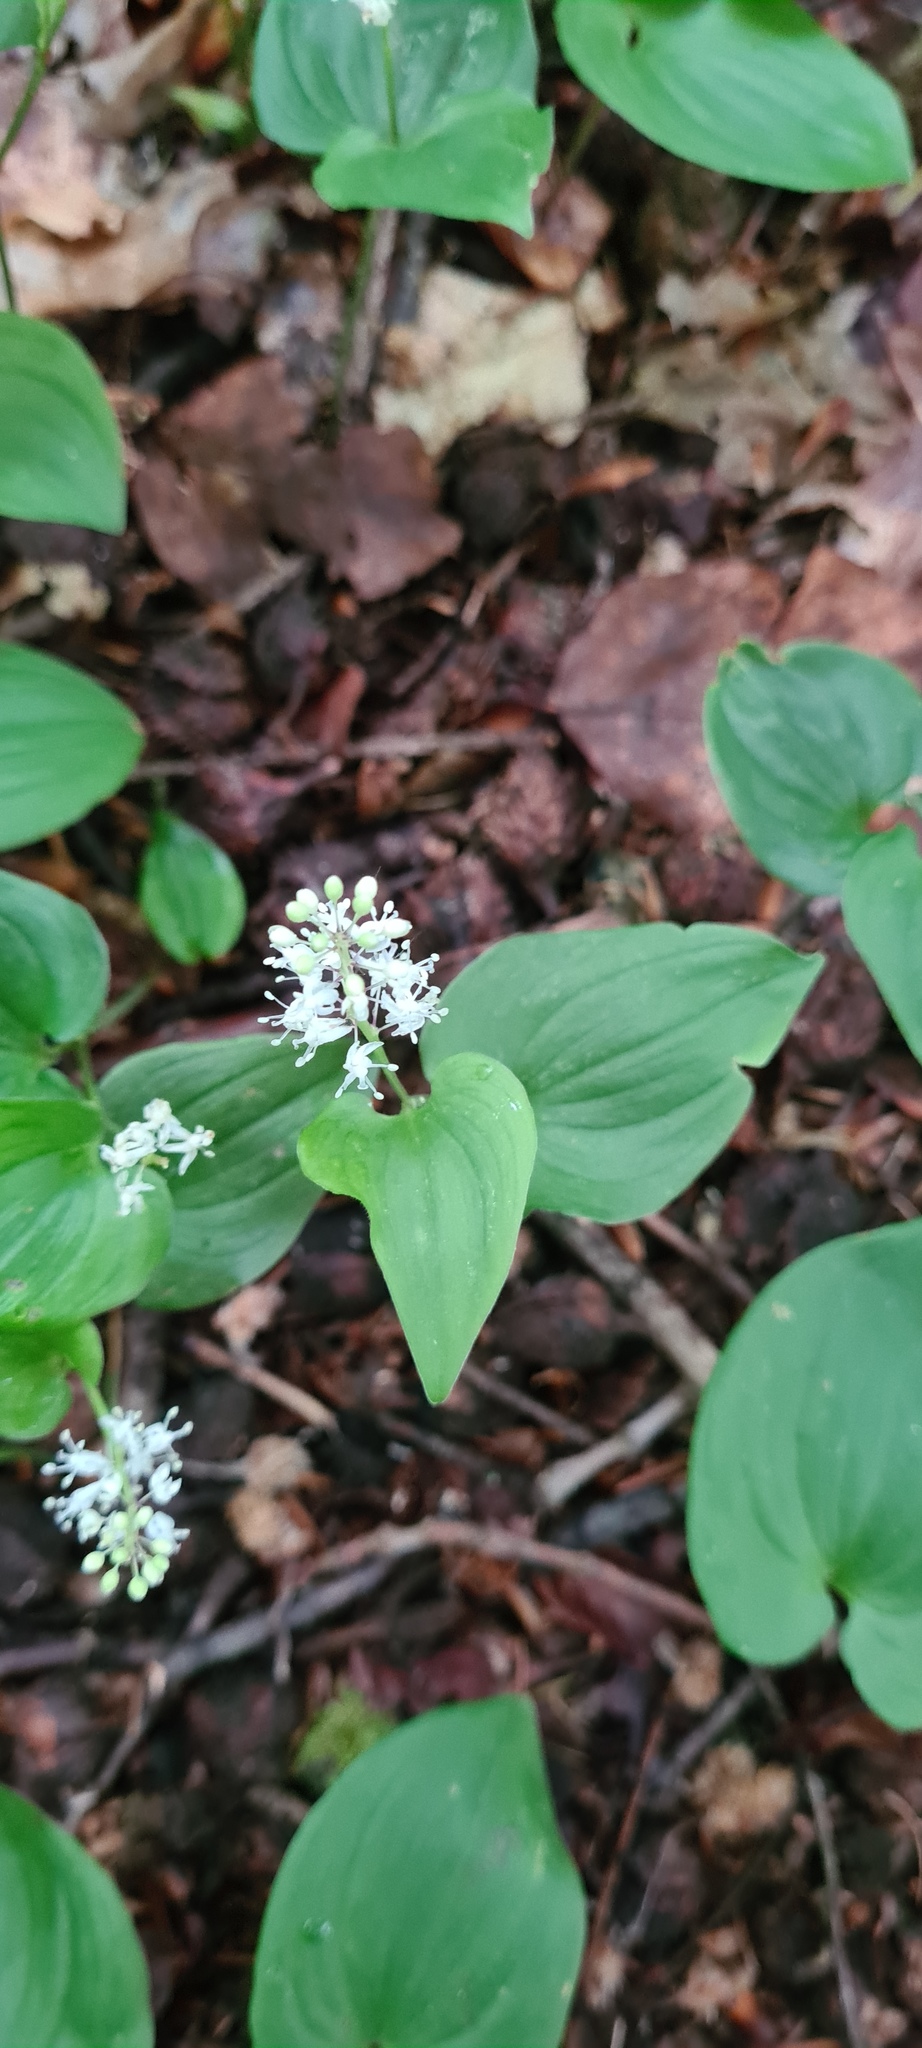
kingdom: Plantae
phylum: Tracheophyta
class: Liliopsida
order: Asparagales
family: Asparagaceae
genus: Maianthemum
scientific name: Maianthemum bifolium
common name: May lily
